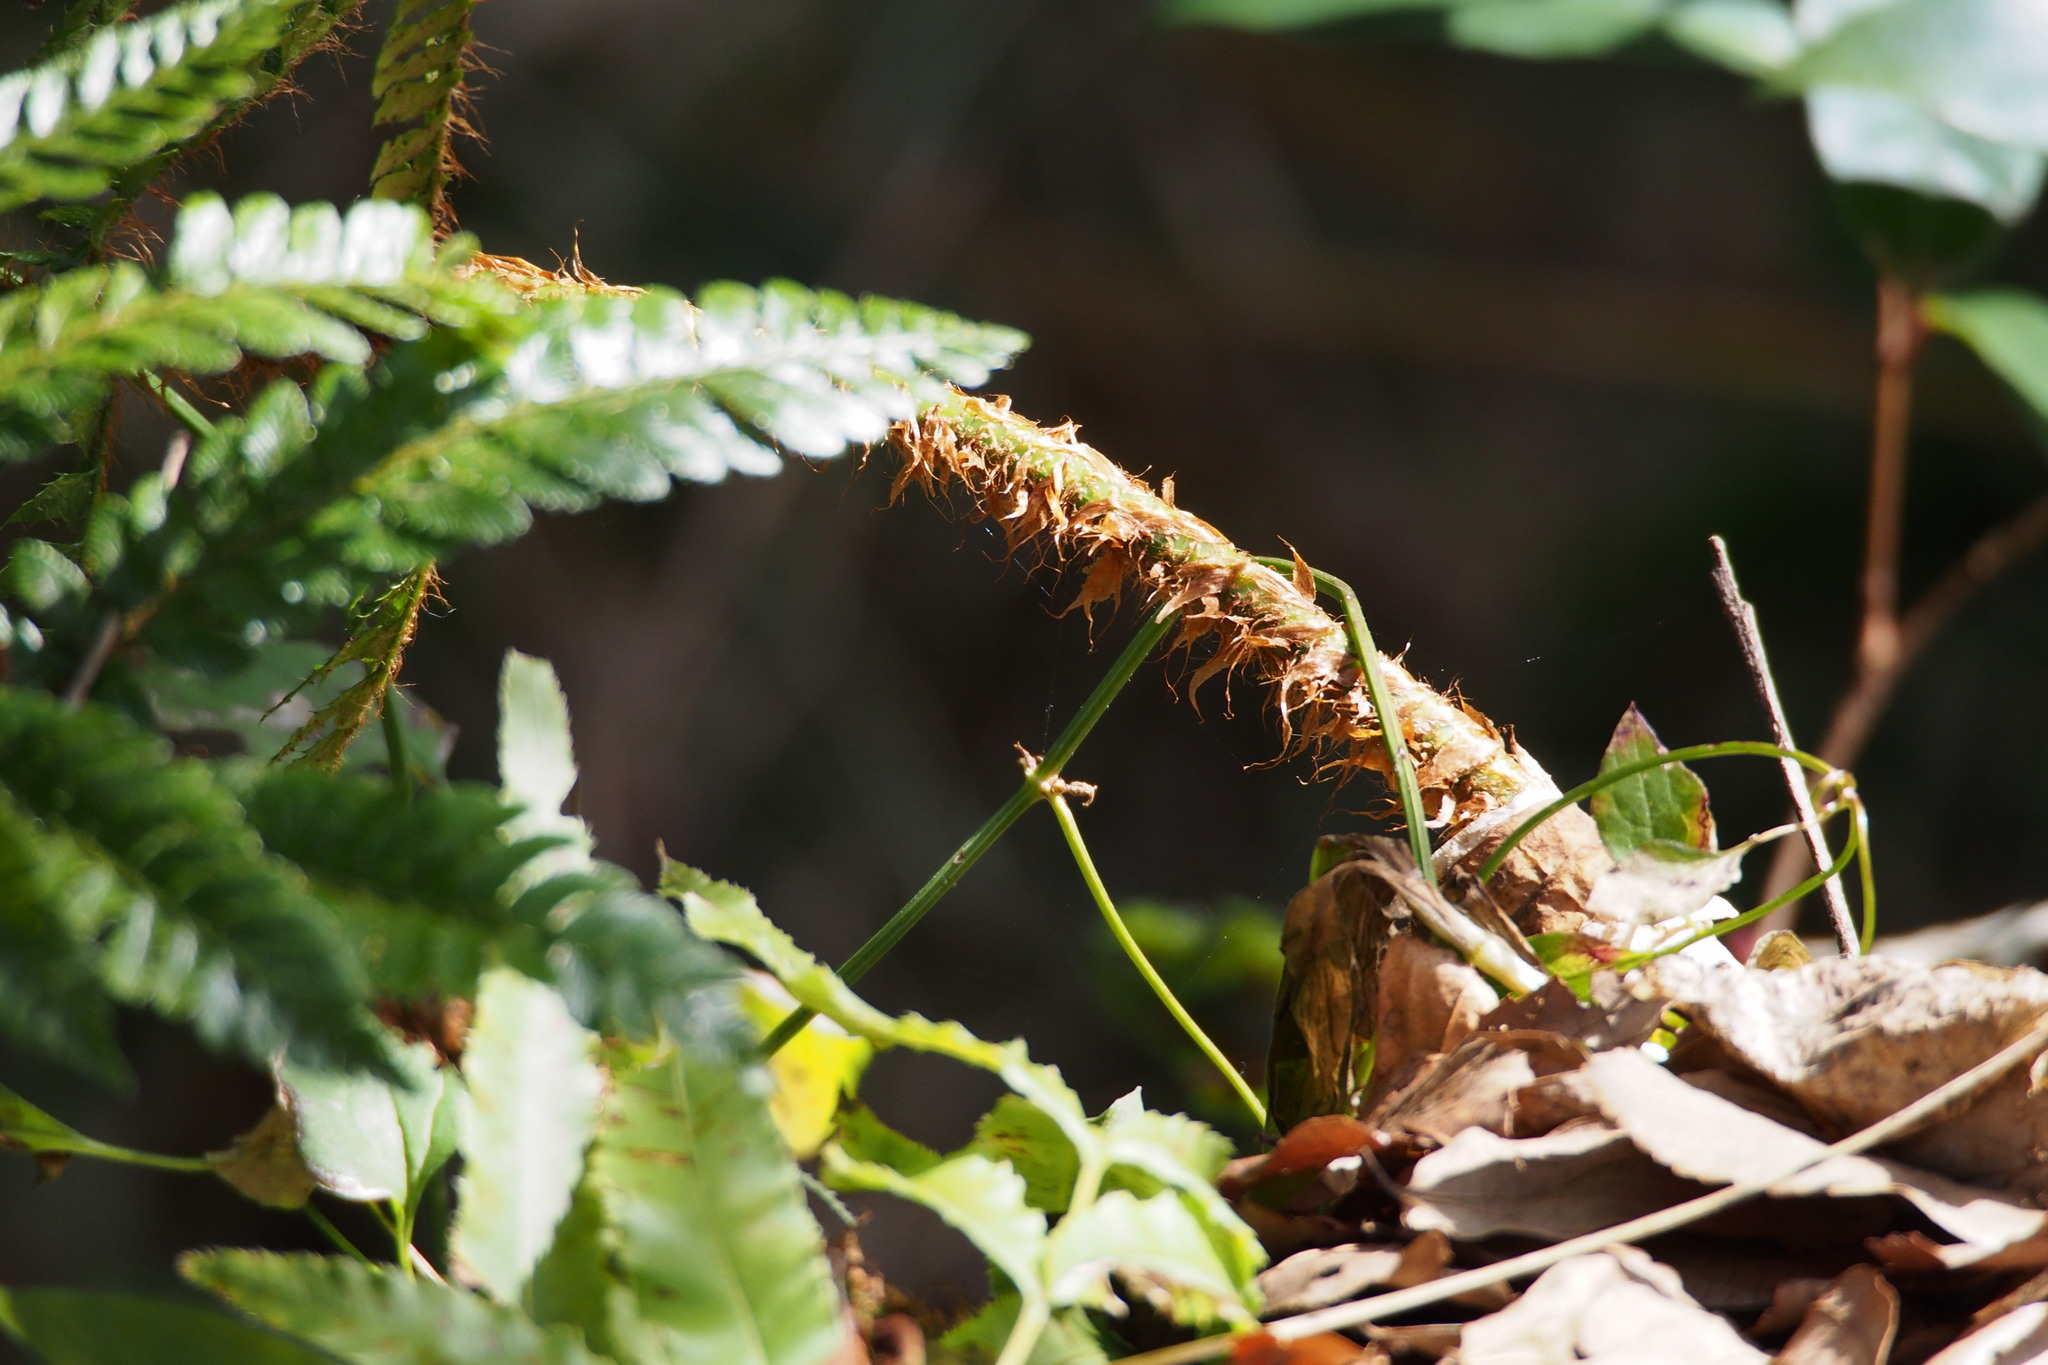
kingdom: Plantae
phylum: Tracheophyta
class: Polypodiopsida
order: Polypodiales
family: Dryopteridaceae
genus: Polystichum
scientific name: Polystichum luctuosum
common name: Korean rockfern
